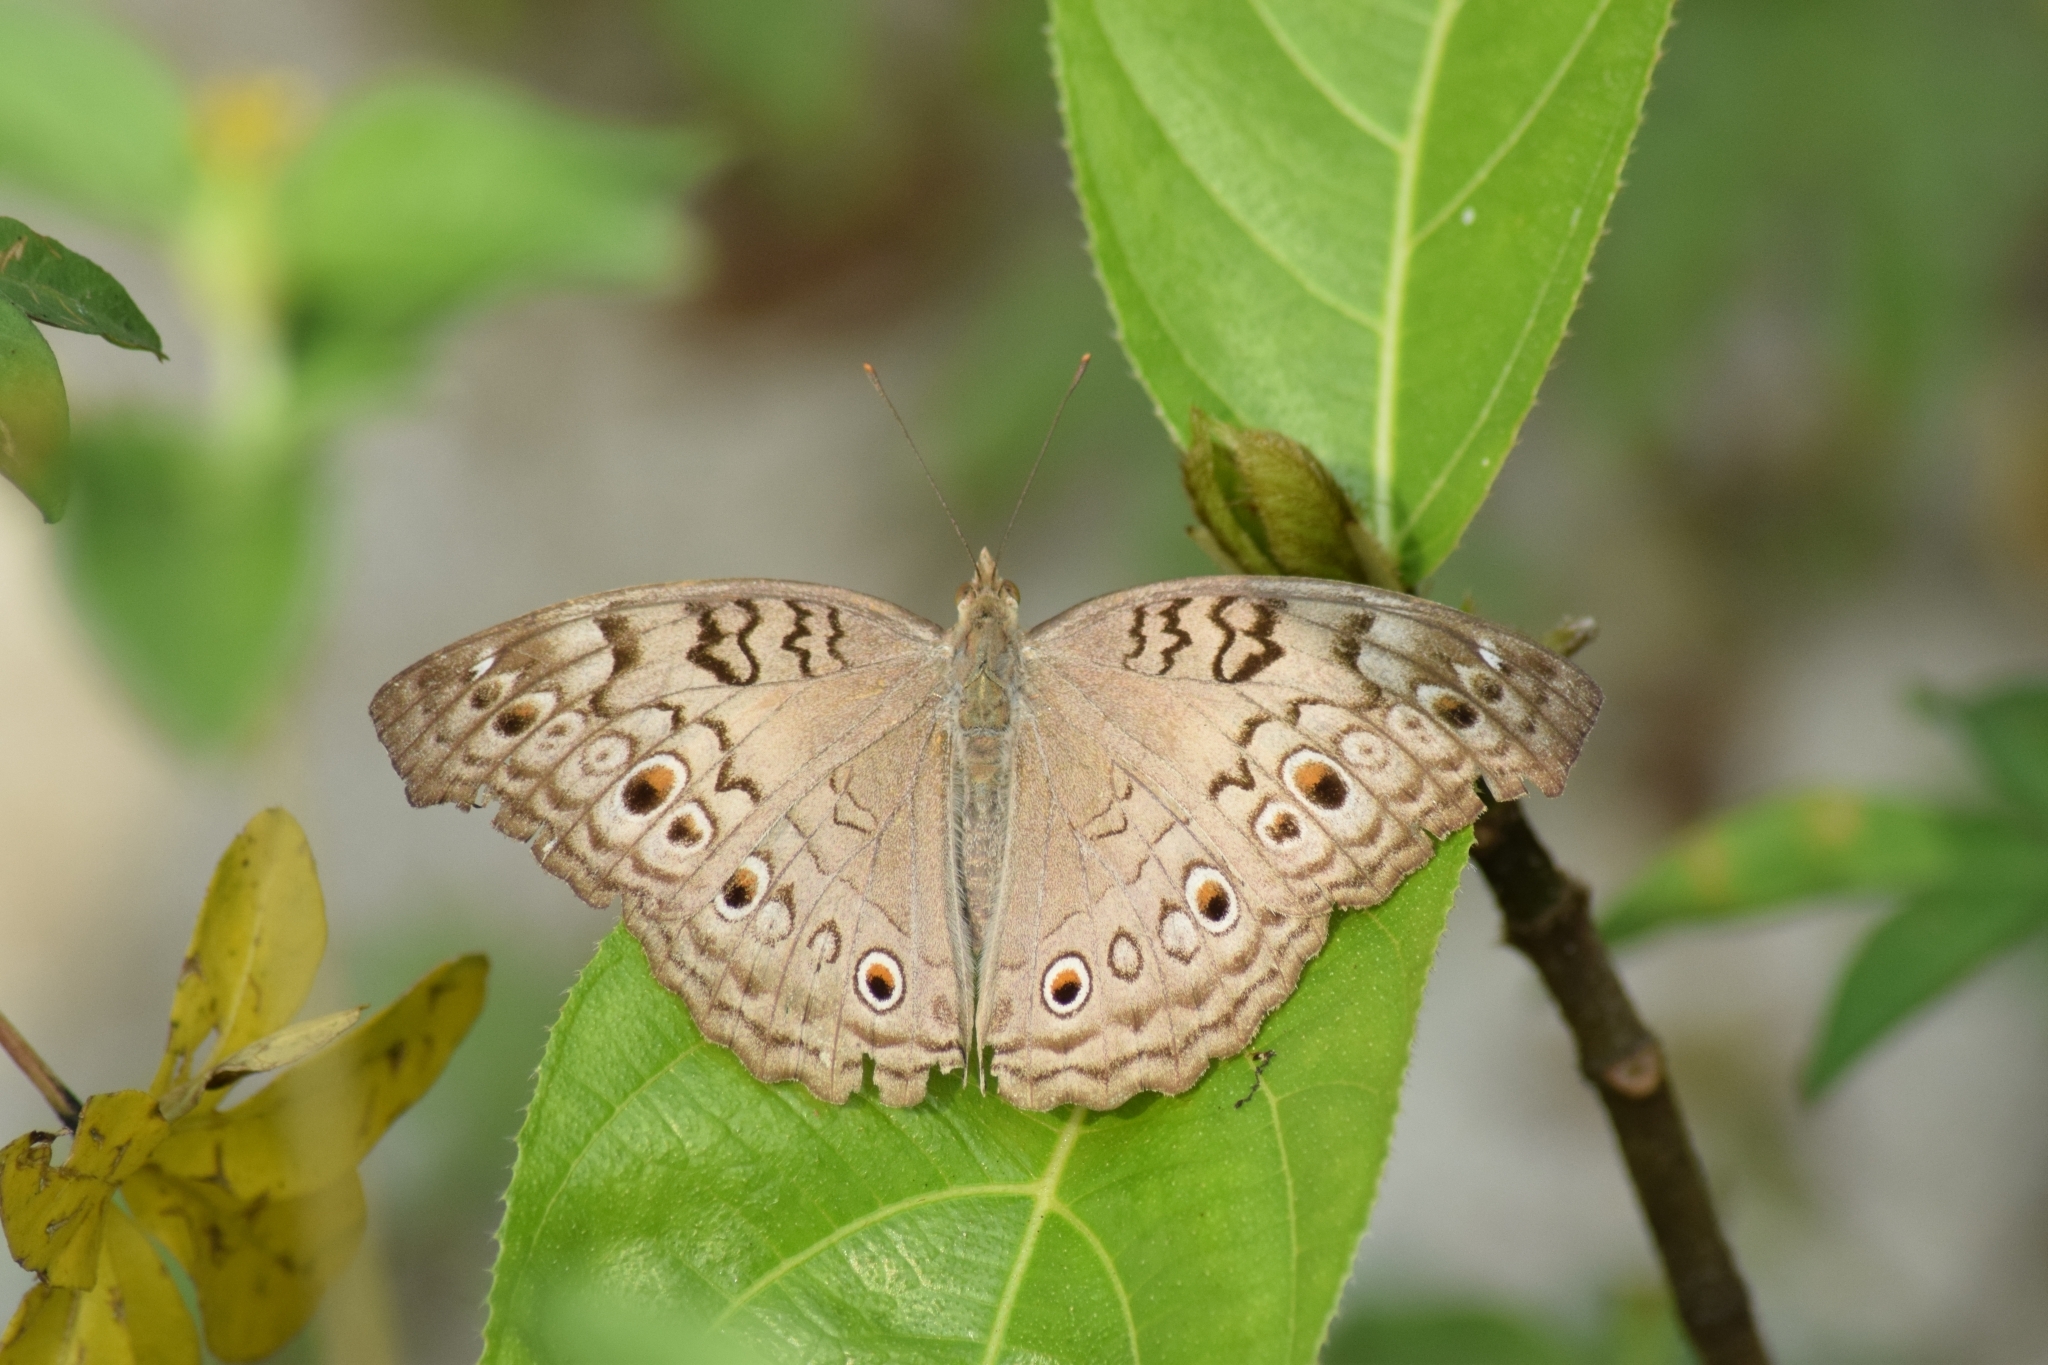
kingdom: Animalia
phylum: Arthropoda
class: Insecta
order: Lepidoptera
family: Nymphalidae
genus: Junonia
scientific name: Junonia atlites
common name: Grey pansy
